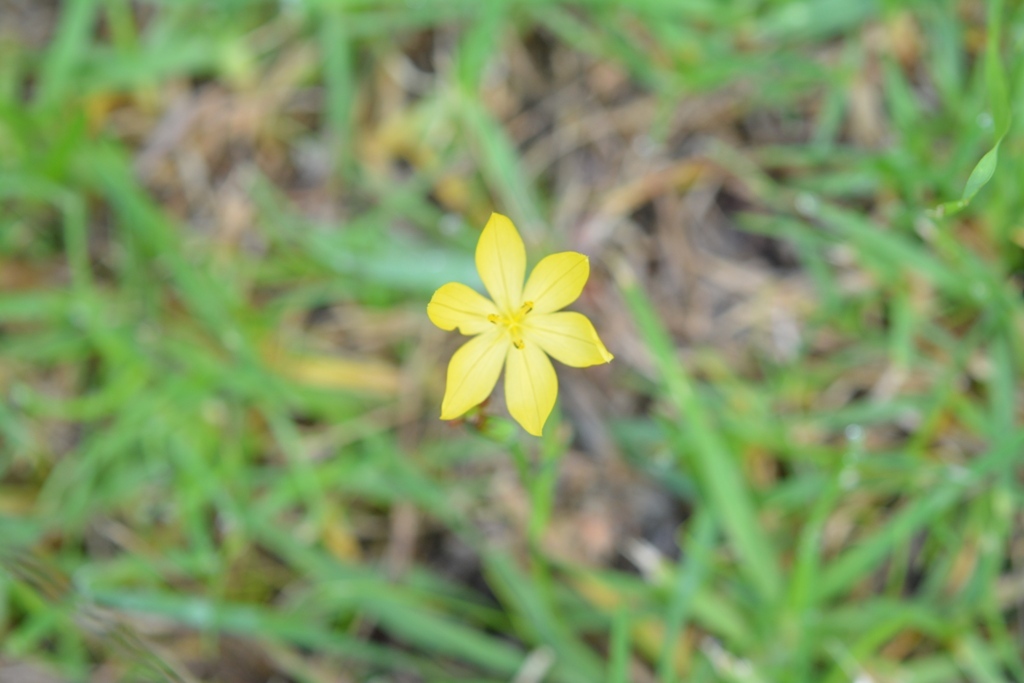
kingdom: Plantae
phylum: Tracheophyta
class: Liliopsida
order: Asparagales
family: Iridaceae
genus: Sisyrinchium
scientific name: Sisyrinchium angustissimum
